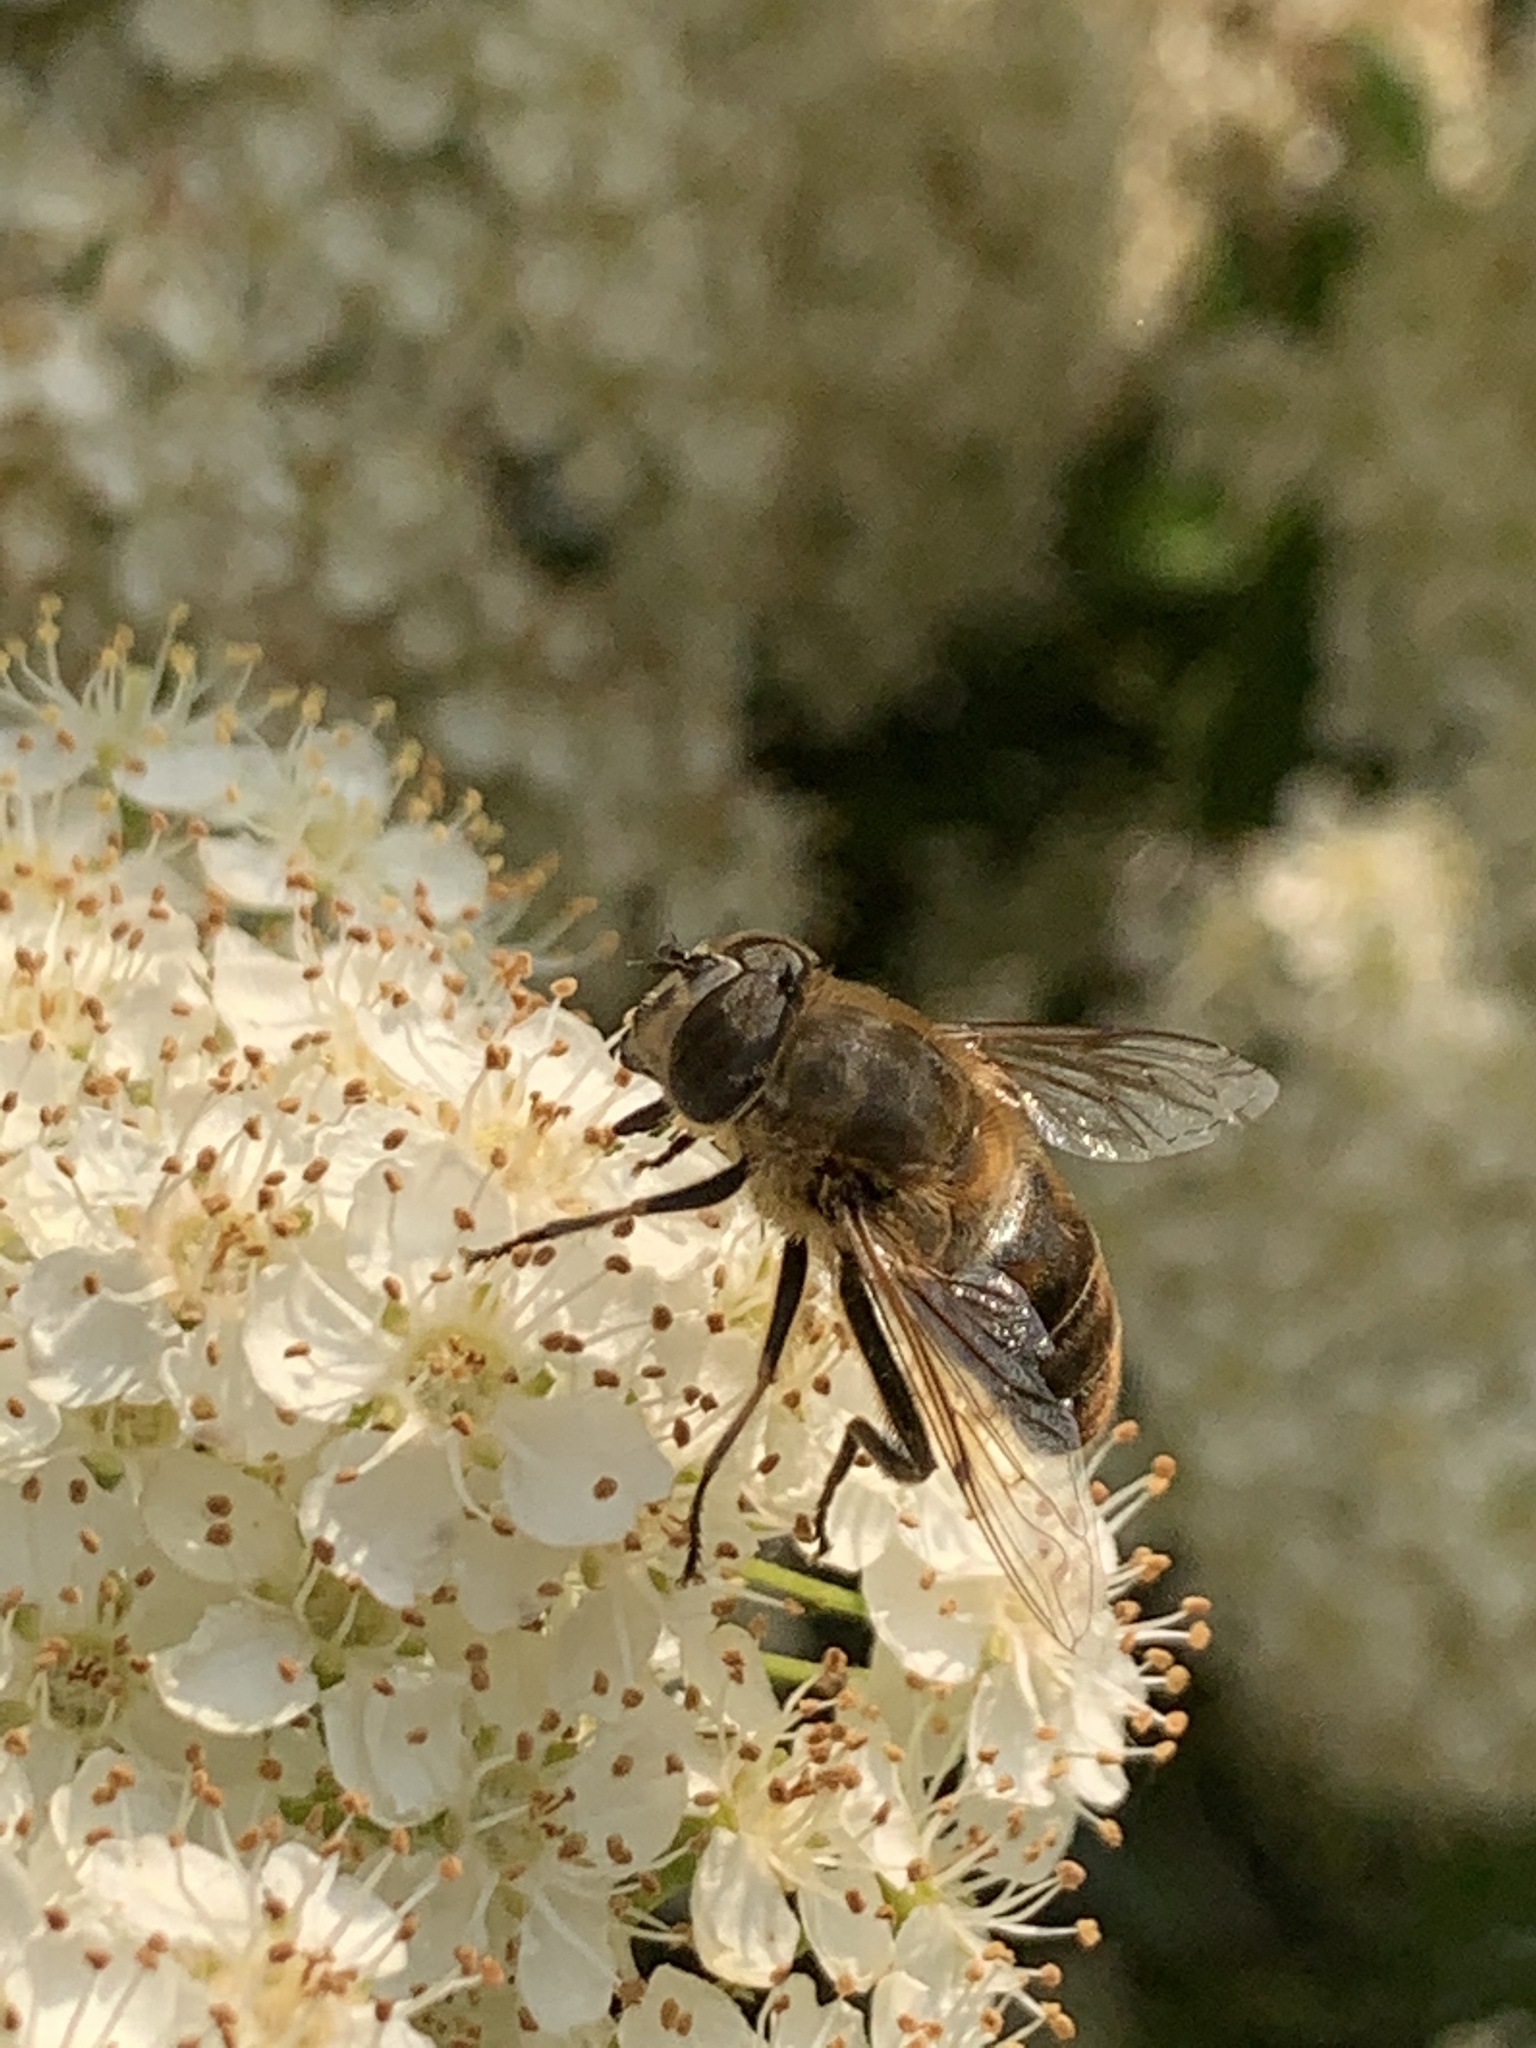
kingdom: Animalia
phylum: Arthropoda
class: Insecta
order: Diptera
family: Syrphidae
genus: Eristalis
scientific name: Eristalis tenax
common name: Drone fly
